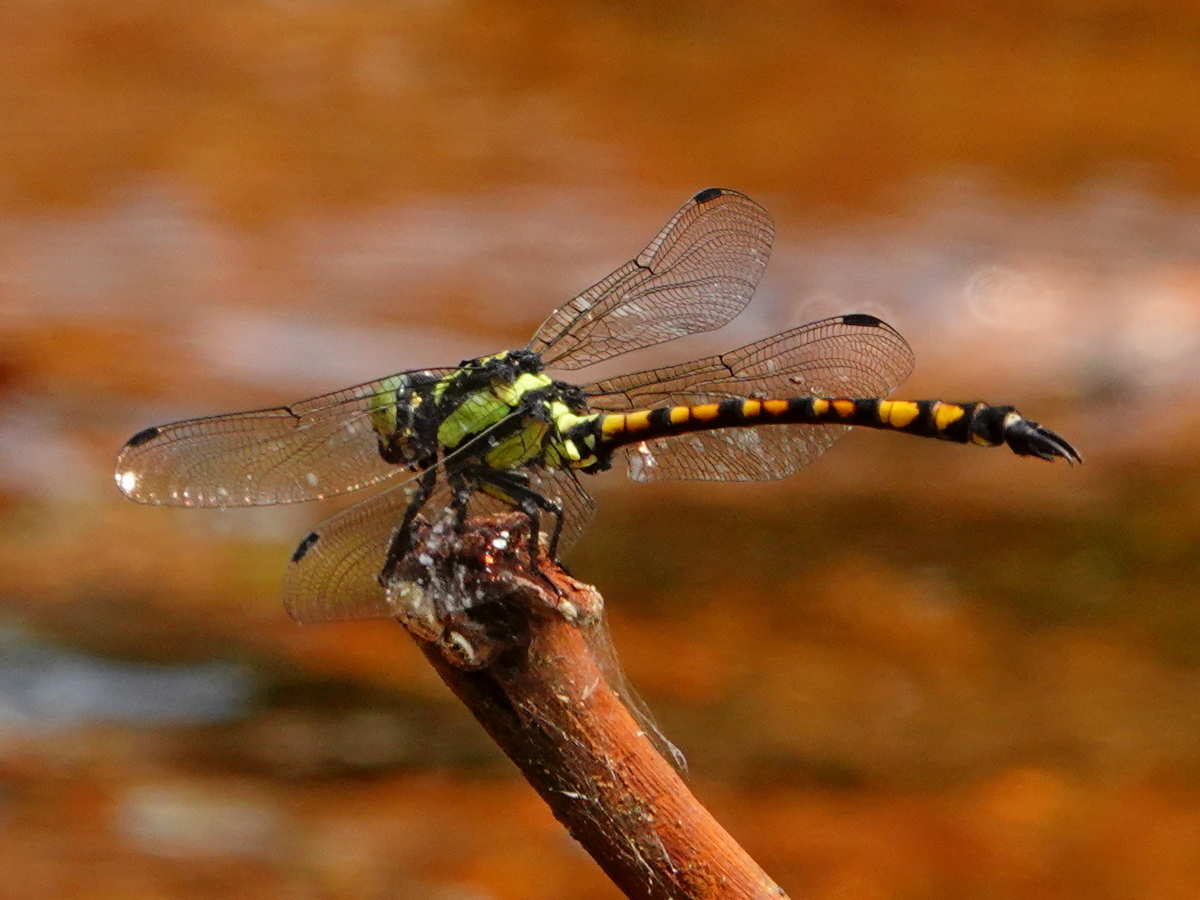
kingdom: Animalia
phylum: Arthropoda
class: Insecta
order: Odonata
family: Gomphidae
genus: Megalogomphus
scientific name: Megalogomphus smithii
